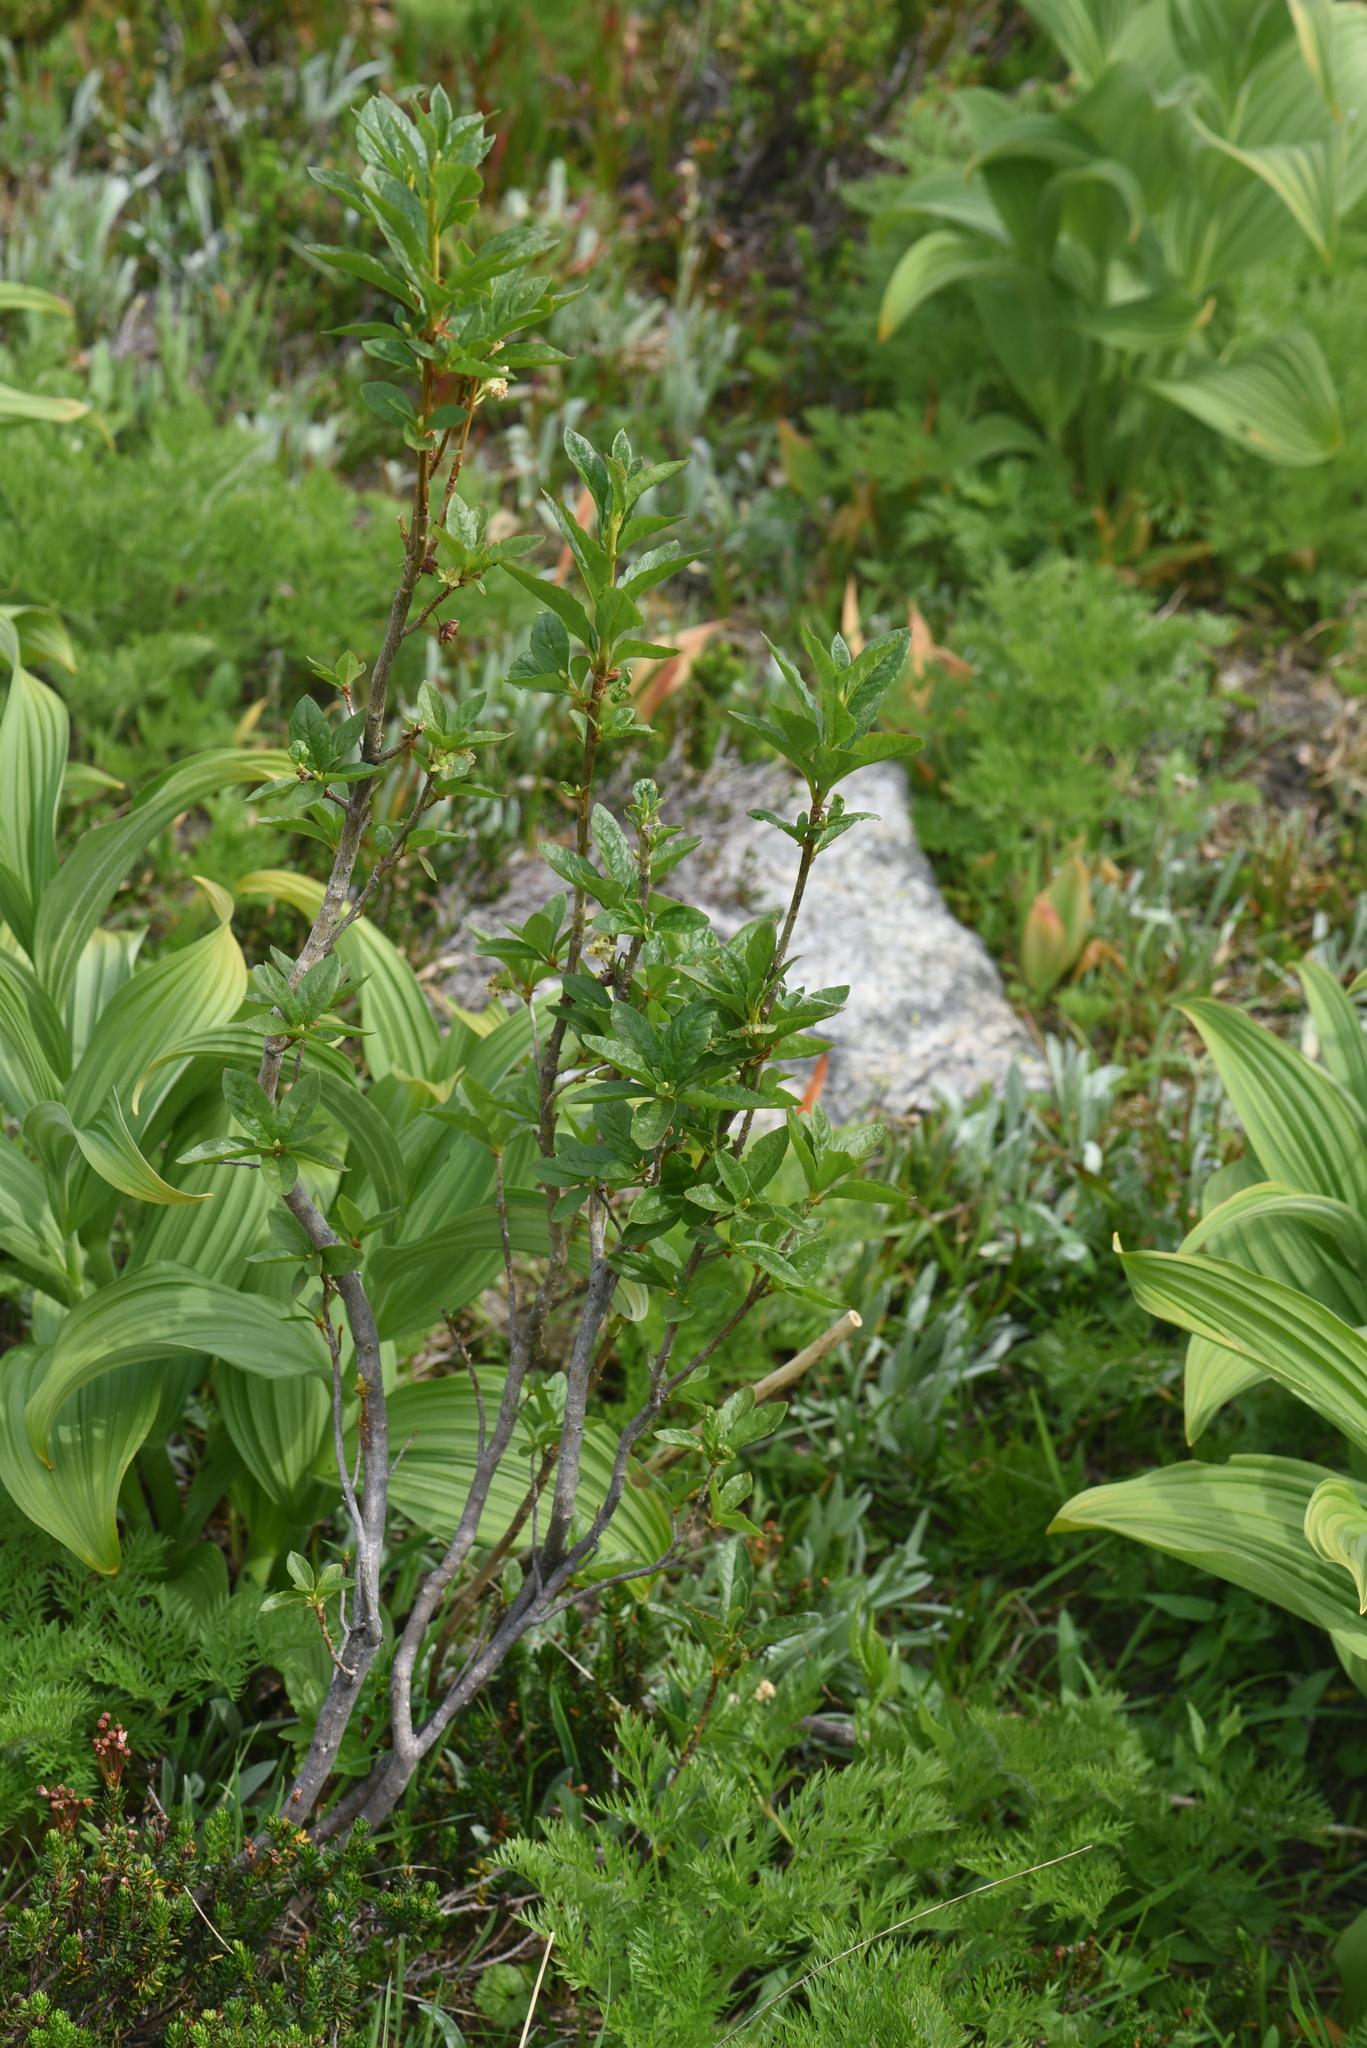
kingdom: Plantae
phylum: Tracheophyta
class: Magnoliopsida
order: Ericales
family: Ericaceae
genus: Rhododendron
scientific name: Rhododendron albiflorum
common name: White rhododendron
